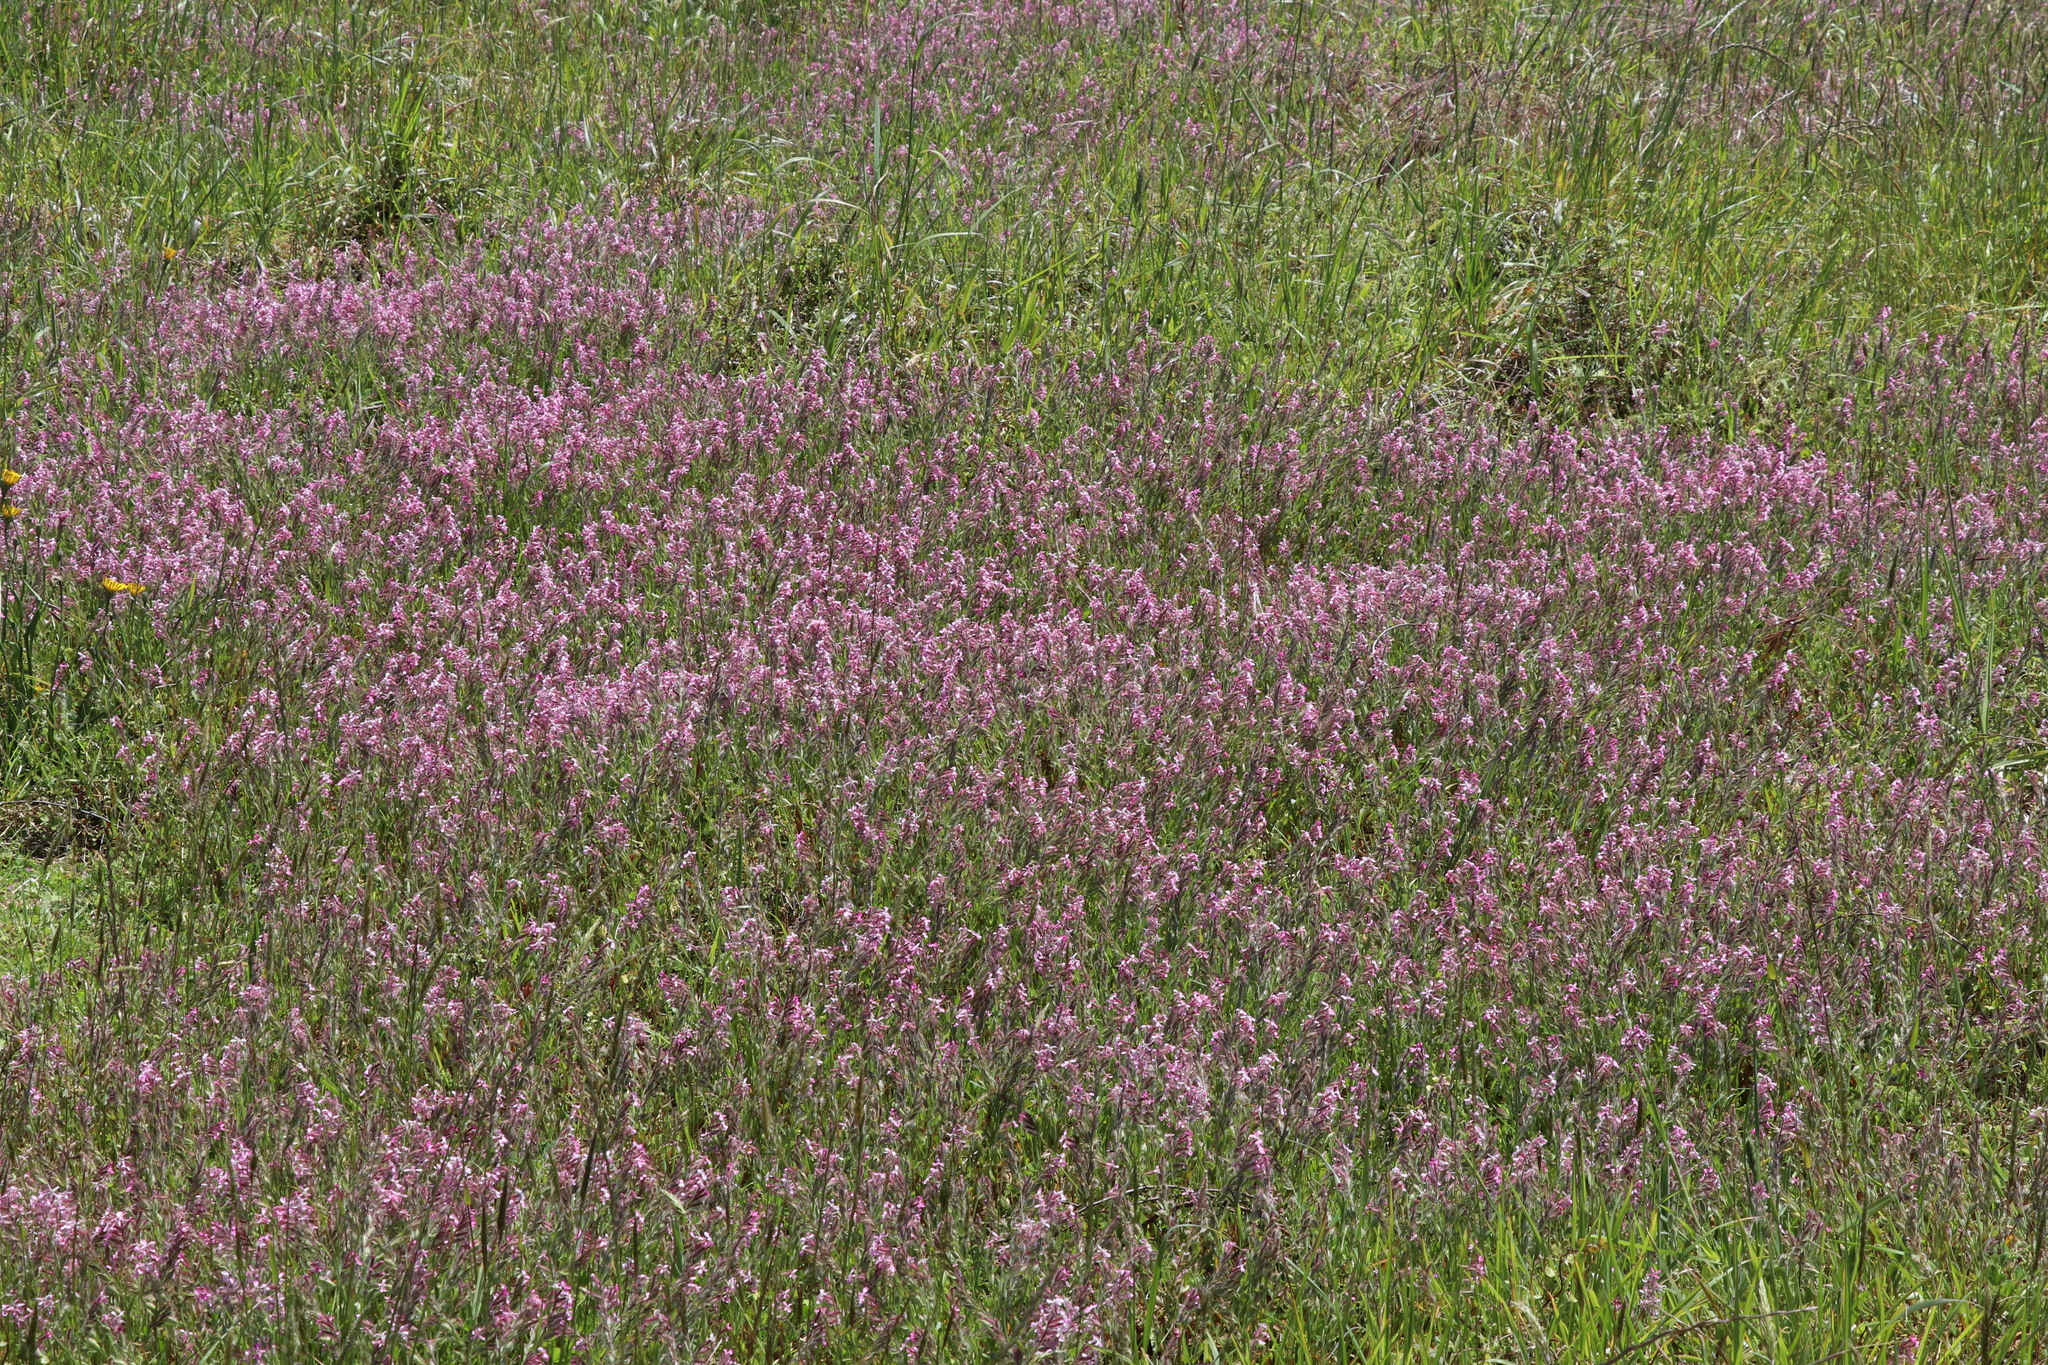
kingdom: Plantae
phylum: Tracheophyta
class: Magnoliopsida
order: Caryophyllales
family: Caryophyllaceae
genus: Silene
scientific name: Silene gallica
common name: Small-flowered catchfly
